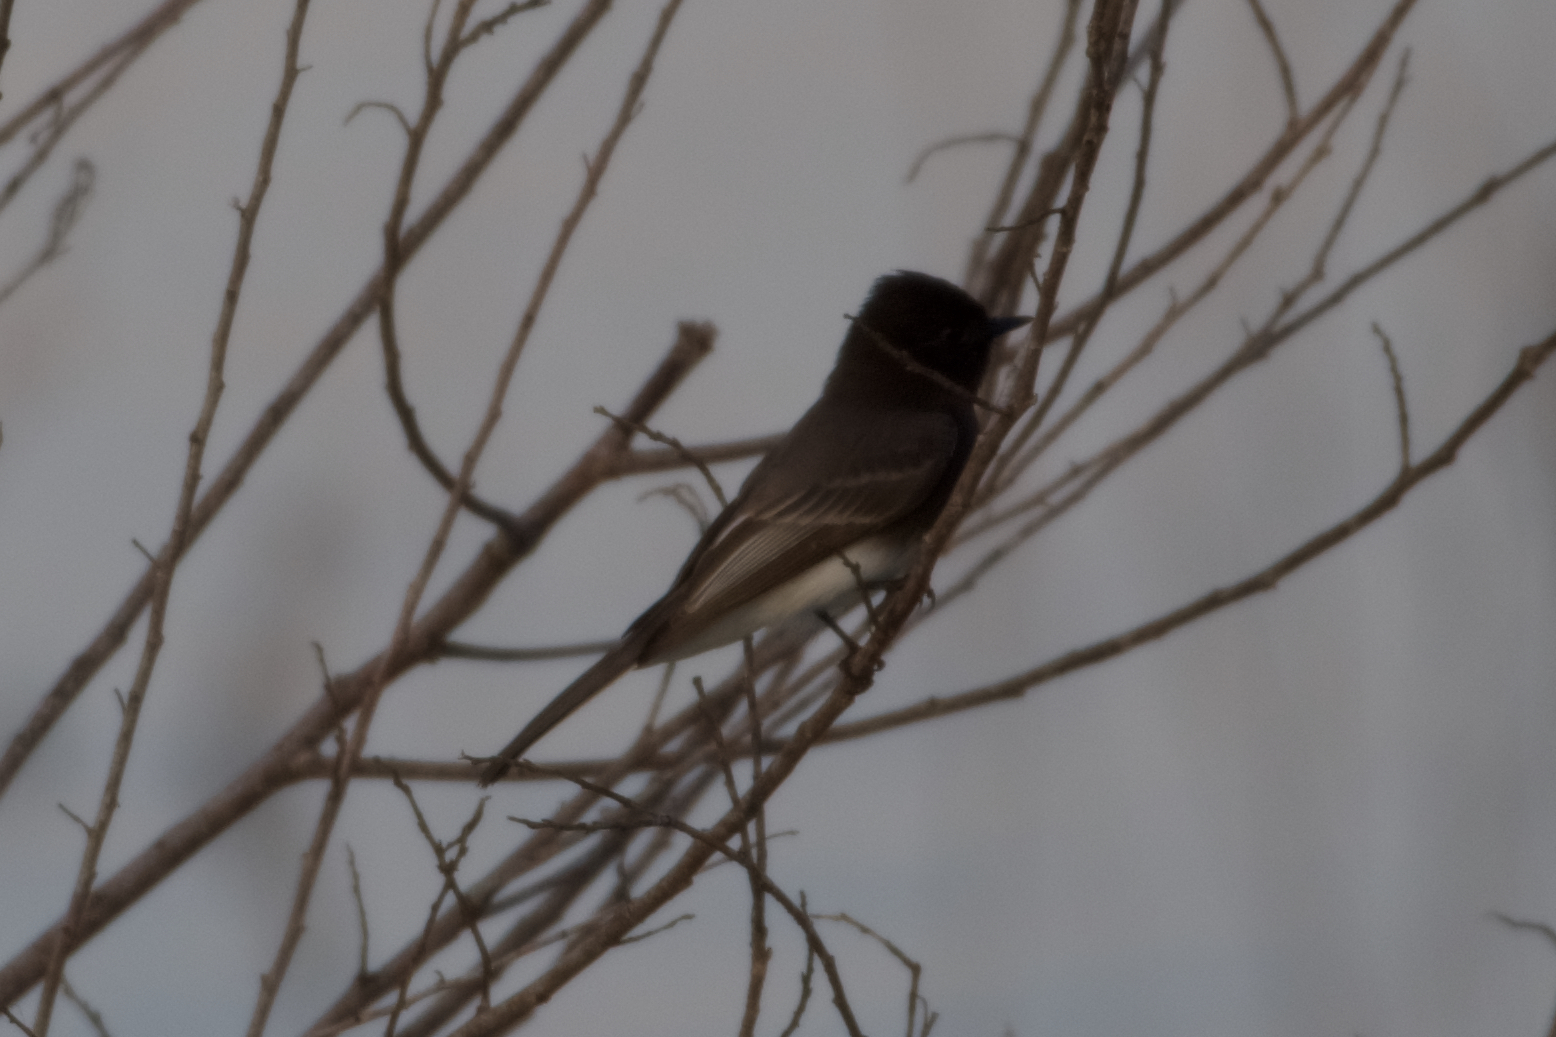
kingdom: Animalia
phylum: Chordata
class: Aves
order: Passeriformes
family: Tyrannidae
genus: Sayornis
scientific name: Sayornis nigricans
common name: Black phoebe
